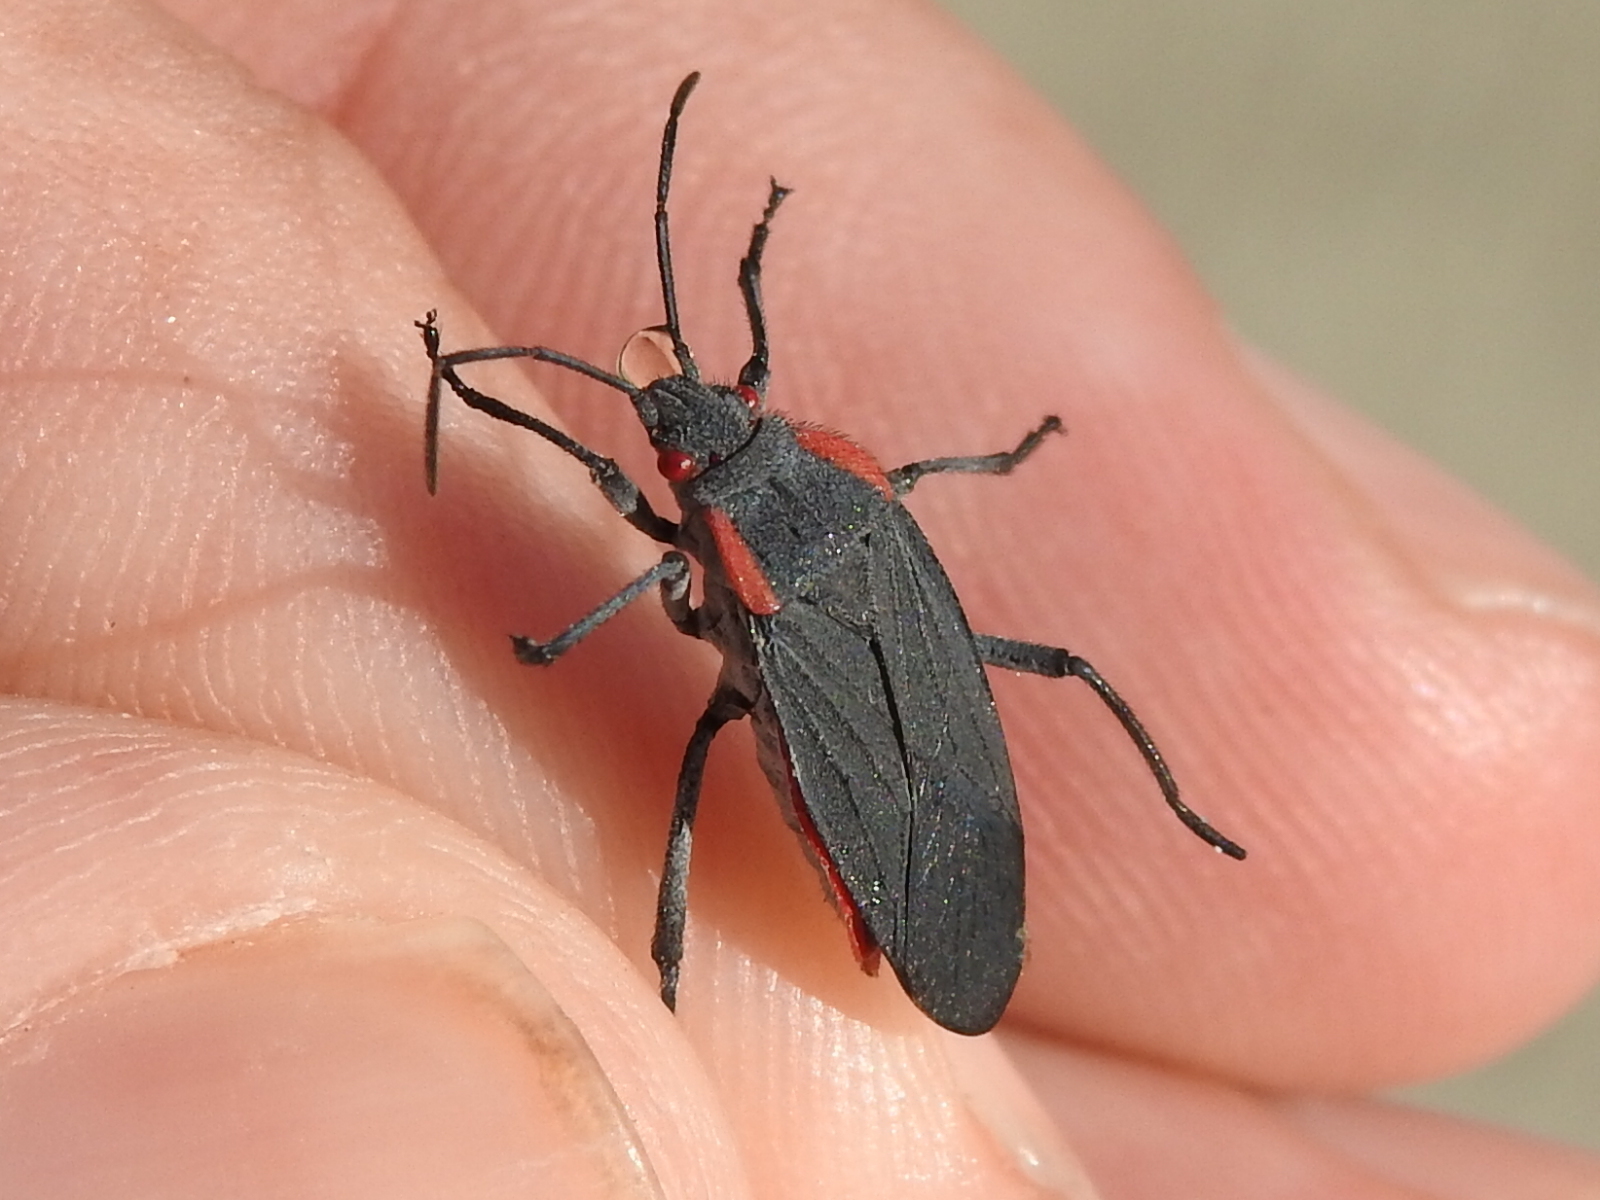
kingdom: Animalia
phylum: Arthropoda
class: Insecta
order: Hemiptera
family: Rhopalidae
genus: Jadera
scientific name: Jadera haematoloma
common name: Red-shouldered bug
